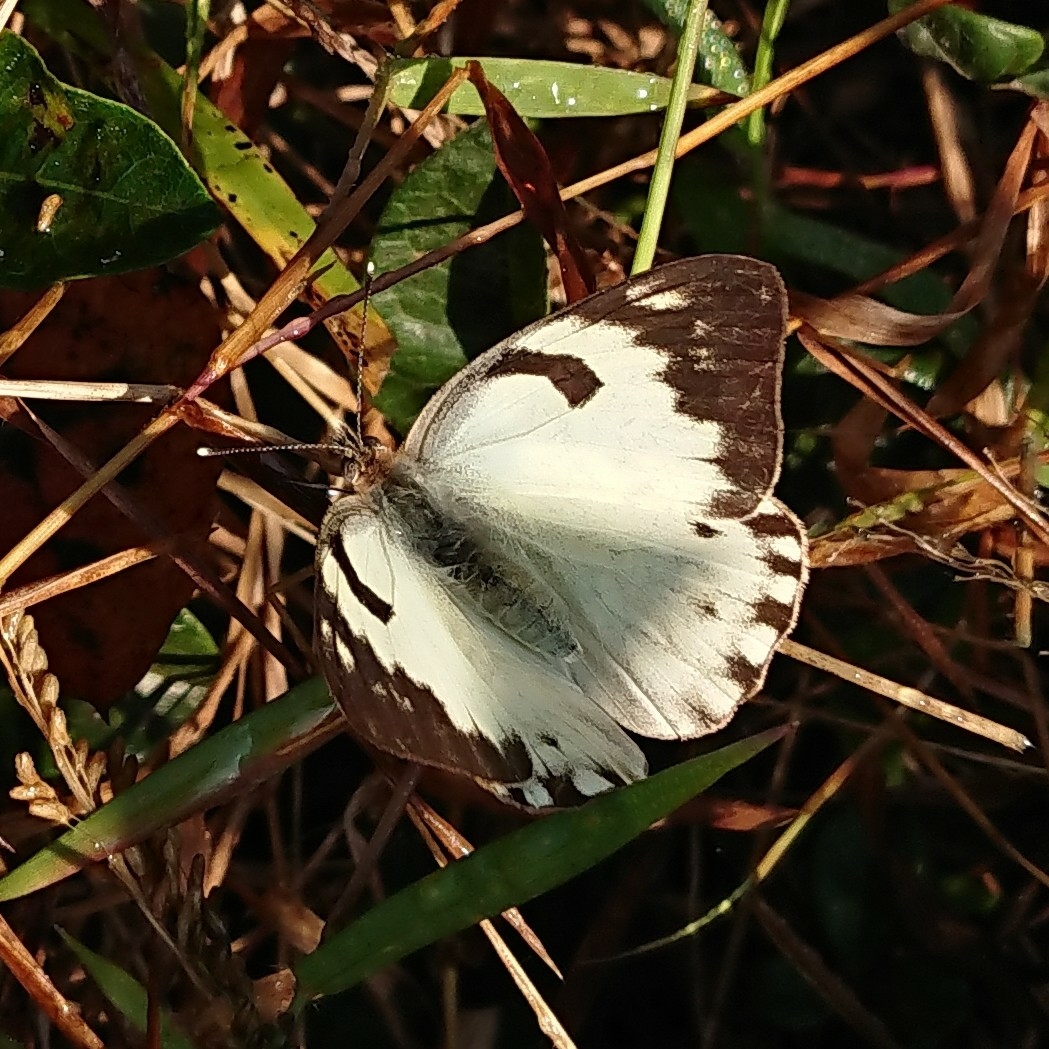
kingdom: Animalia
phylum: Arthropoda
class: Insecta
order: Lepidoptera
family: Pieridae
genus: Belenois
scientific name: Belenois gidica
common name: Pointed caper white
